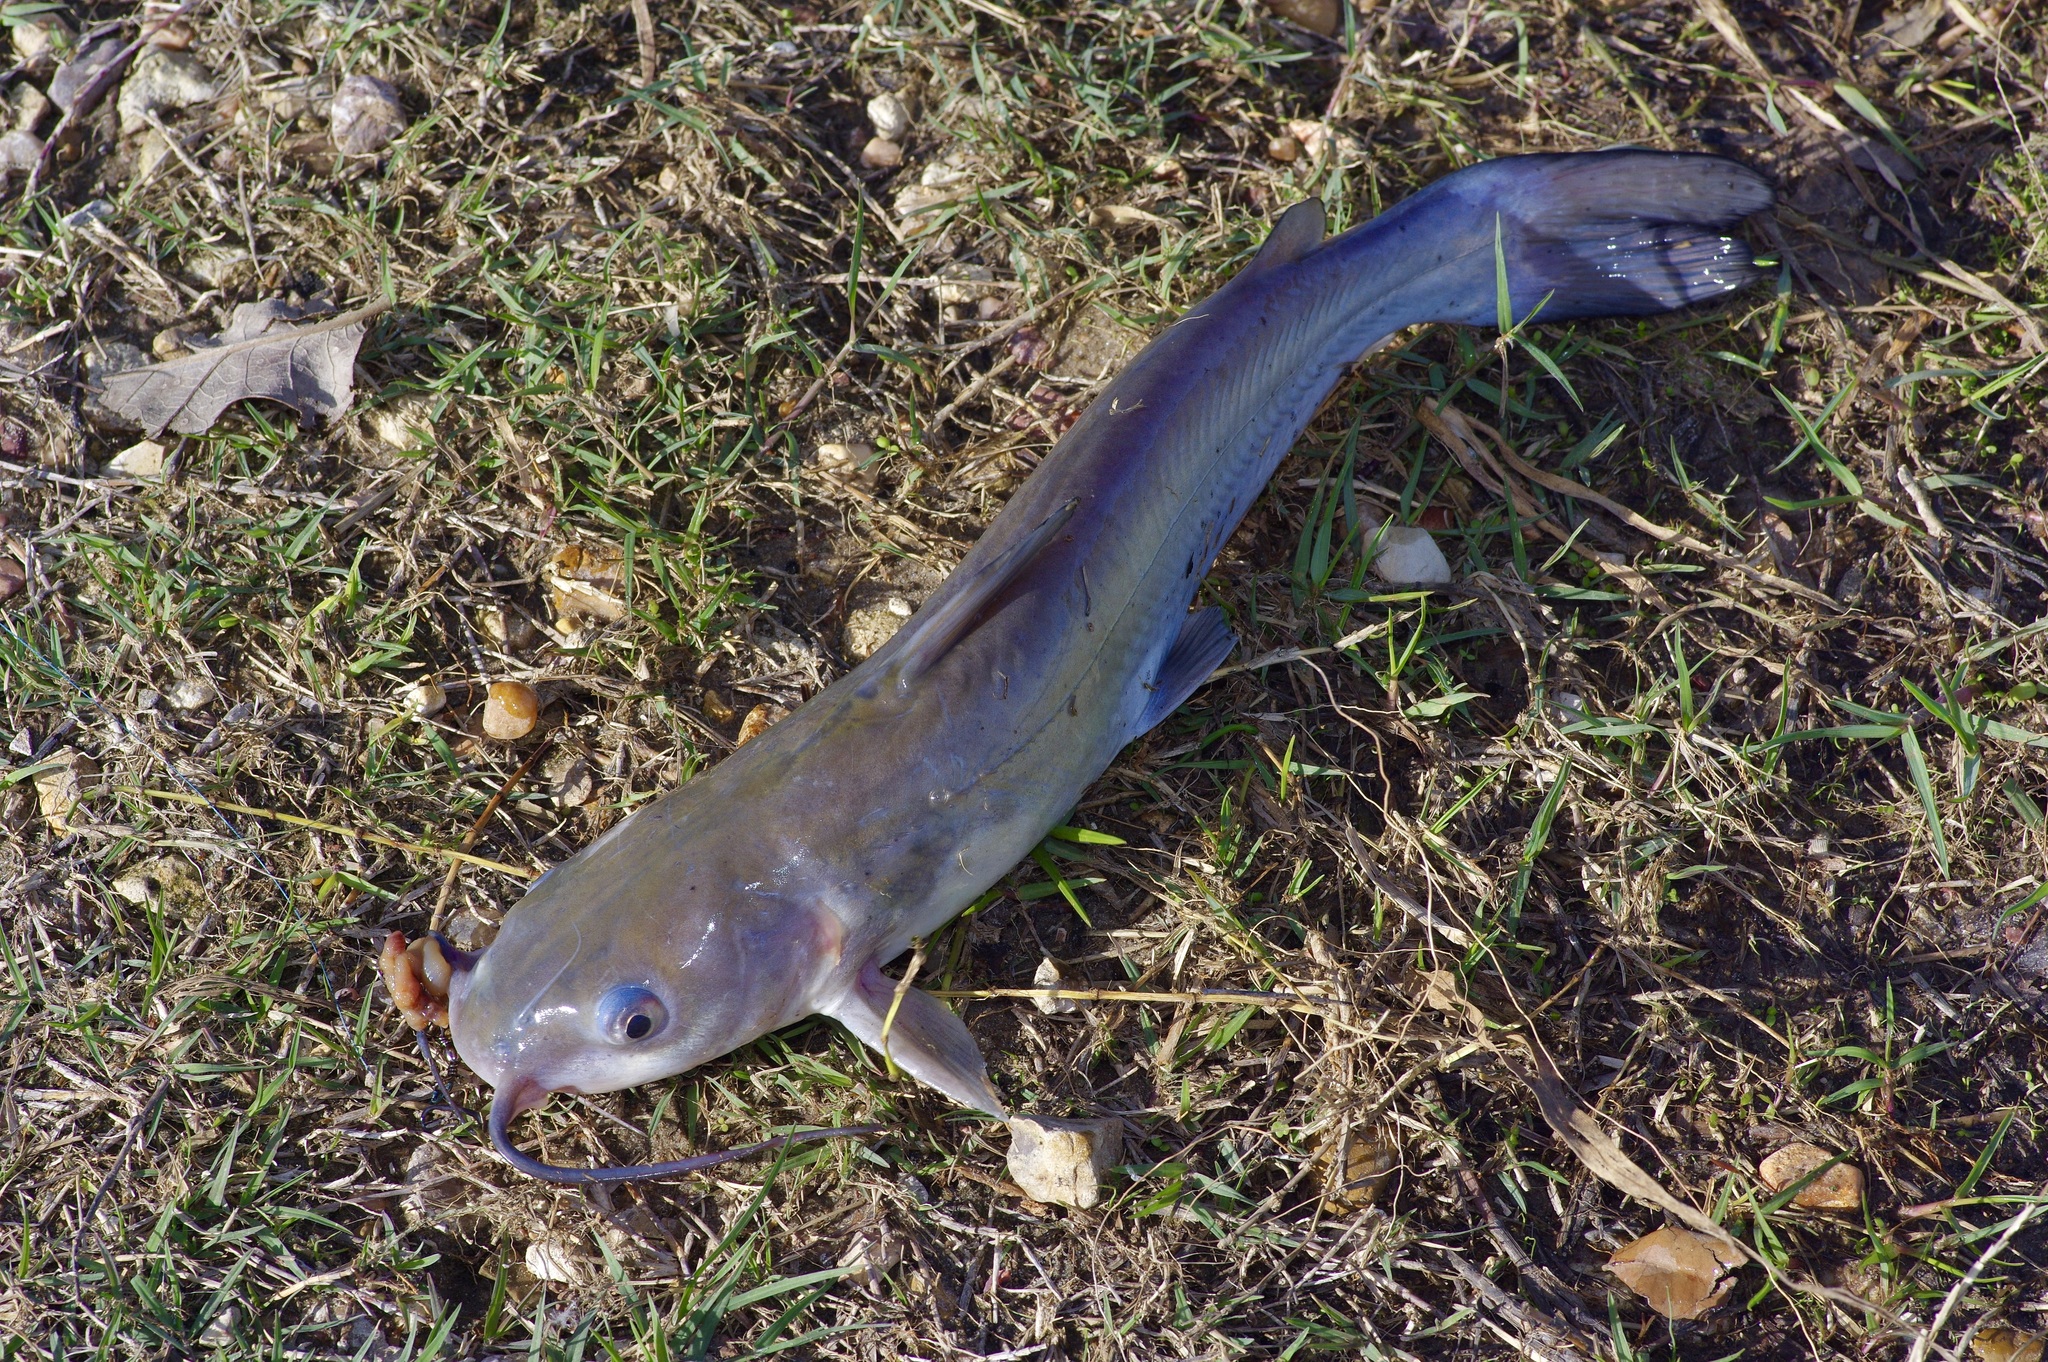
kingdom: Animalia
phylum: Chordata
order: Siluriformes
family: Ictaluridae
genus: Ictalurus
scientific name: Ictalurus punctatus
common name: Channel catfish
